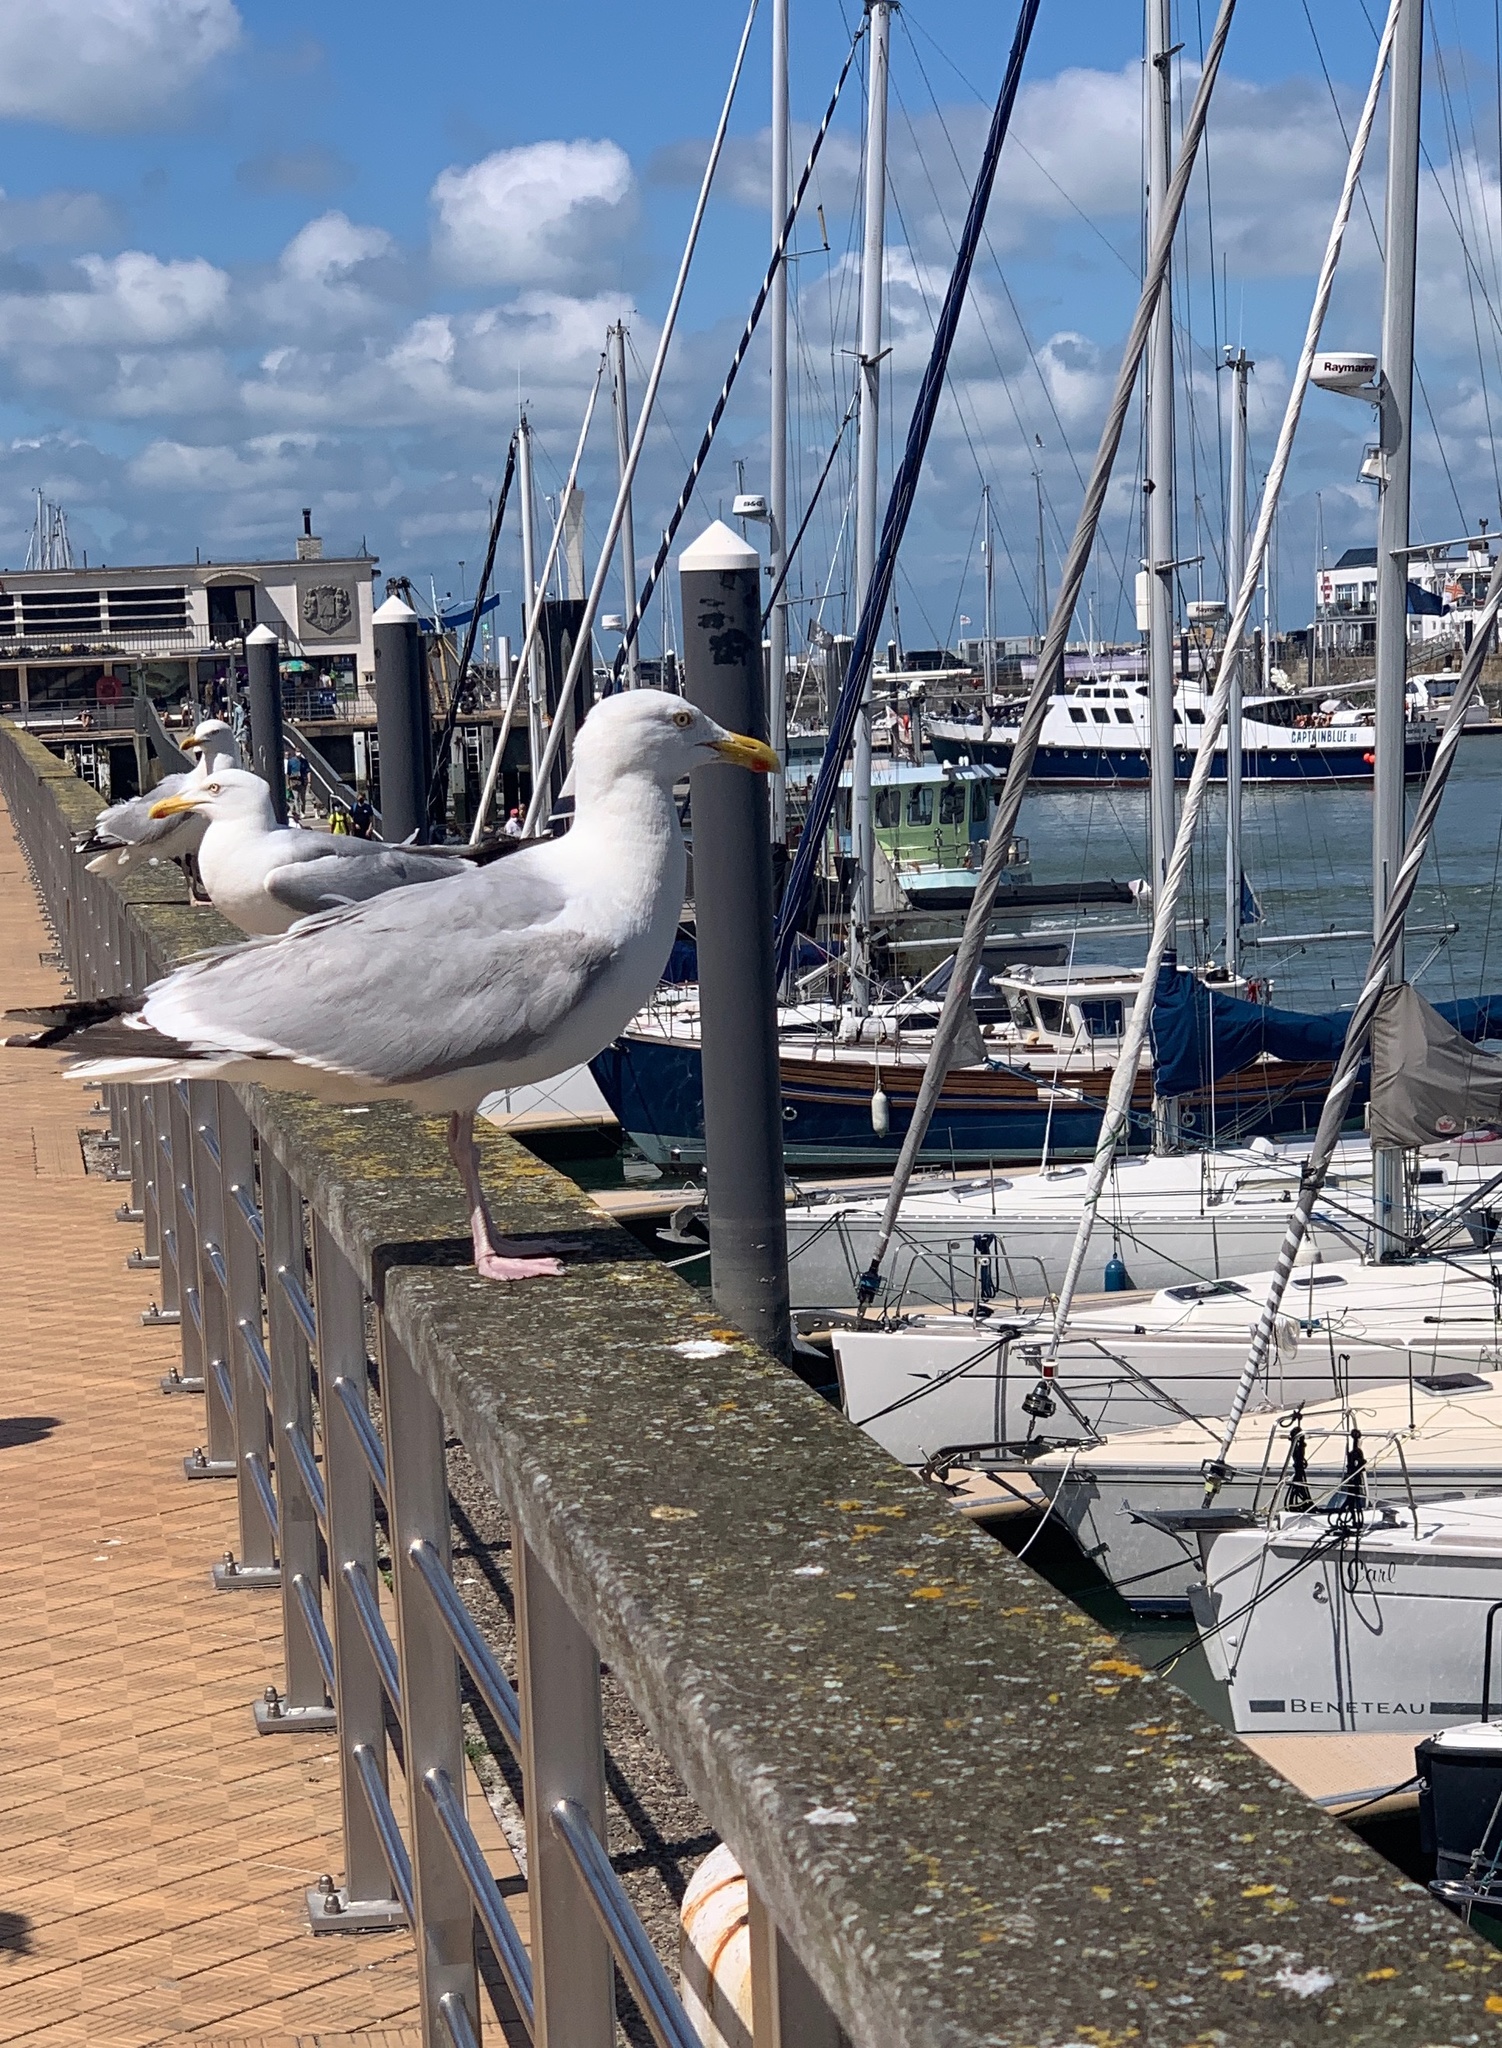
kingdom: Animalia
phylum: Chordata
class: Aves
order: Charadriiformes
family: Laridae
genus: Larus
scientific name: Larus argentatus
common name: Herring gull
